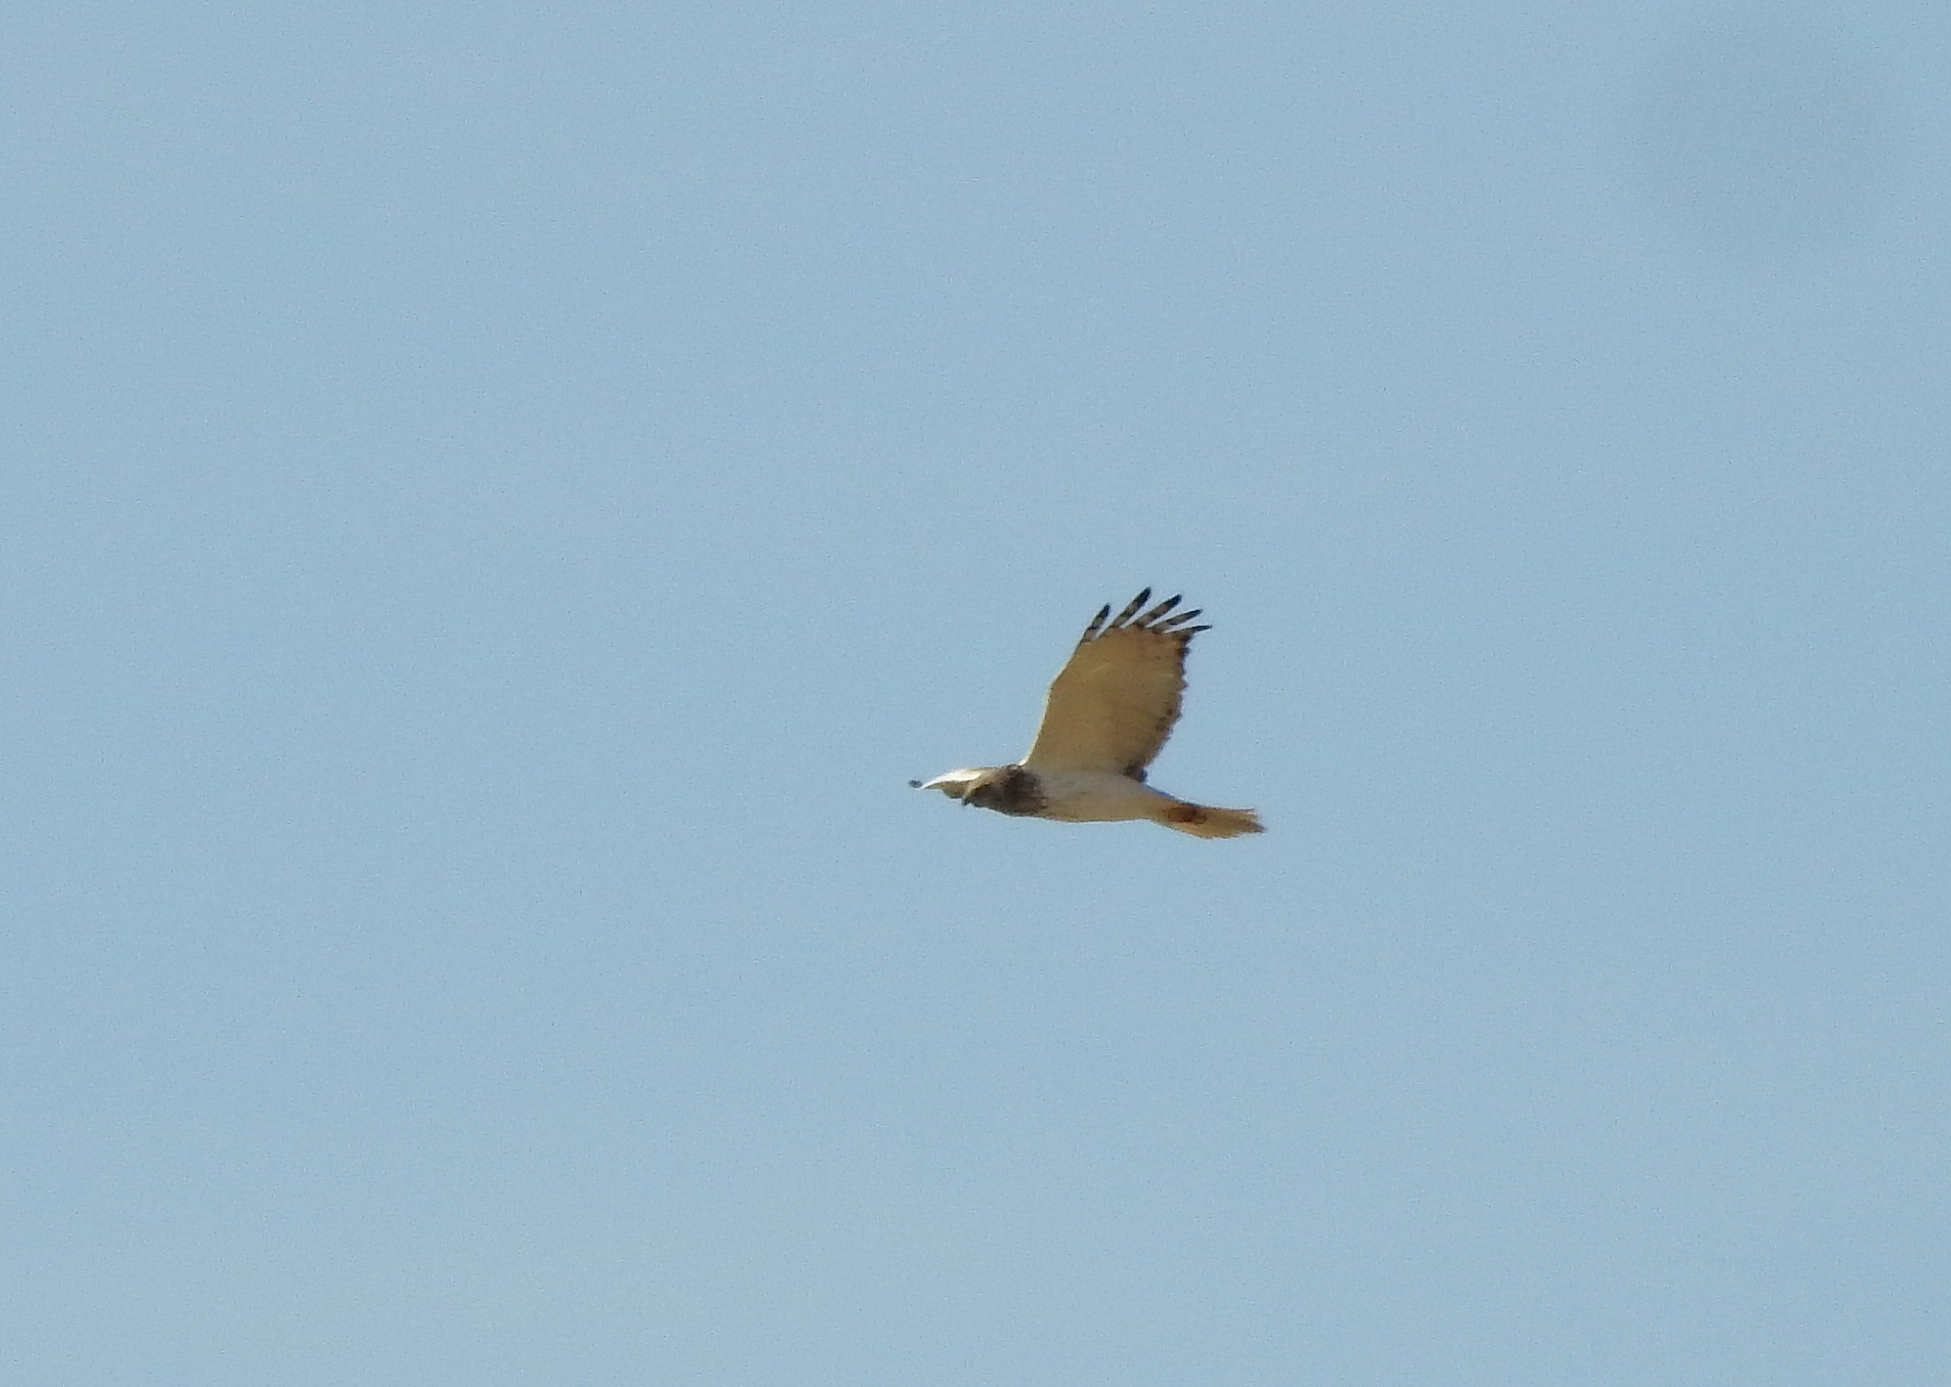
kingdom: Animalia
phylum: Chordata
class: Aves
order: Accipitriformes
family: Accipitridae
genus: Circus
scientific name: Circus spilonotus
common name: Eastern marsh-harrier
